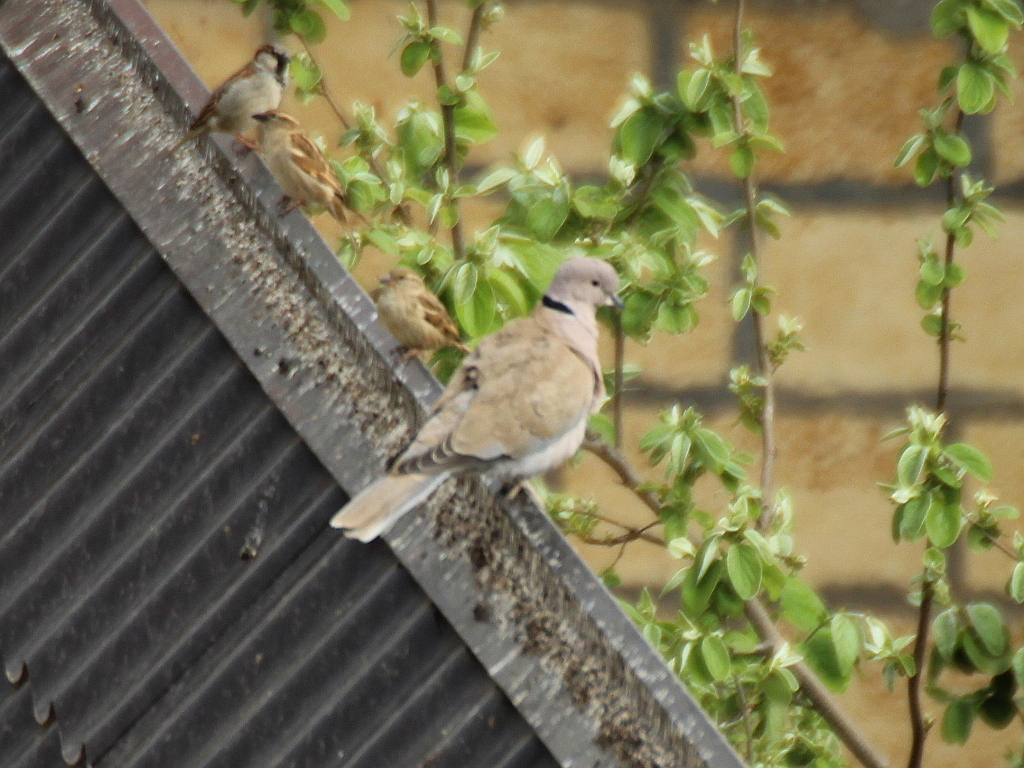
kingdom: Animalia
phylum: Chordata
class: Aves
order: Columbiformes
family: Columbidae
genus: Streptopelia
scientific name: Streptopelia decaocto
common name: Eurasian collared dove
